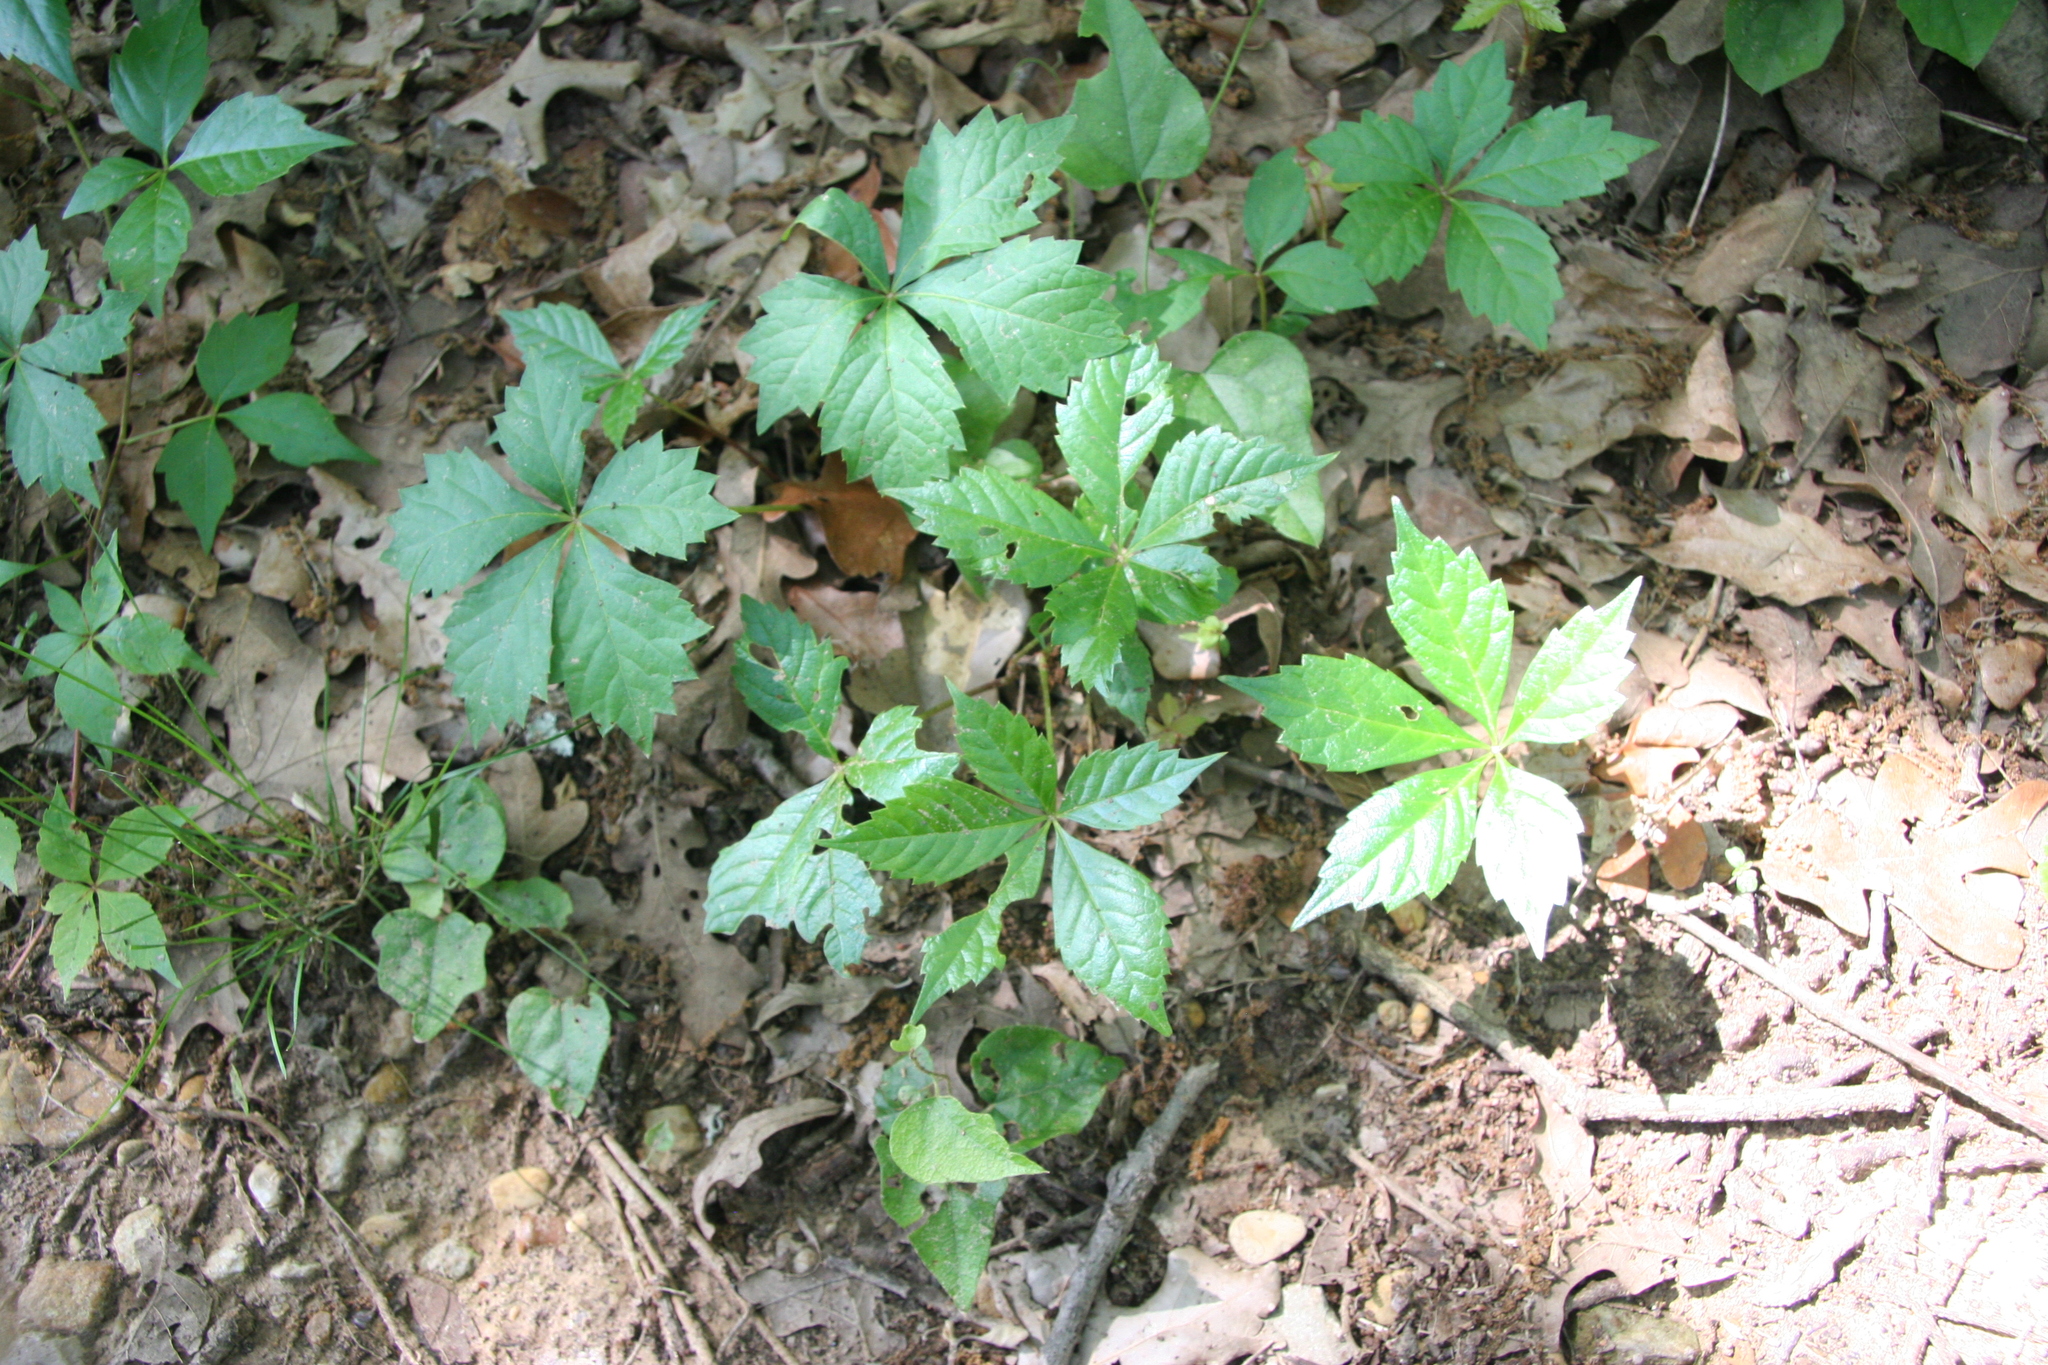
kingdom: Plantae
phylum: Tracheophyta
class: Magnoliopsida
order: Vitales
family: Vitaceae
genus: Parthenocissus
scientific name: Parthenocissus quinquefolia
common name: Virginia-creeper
